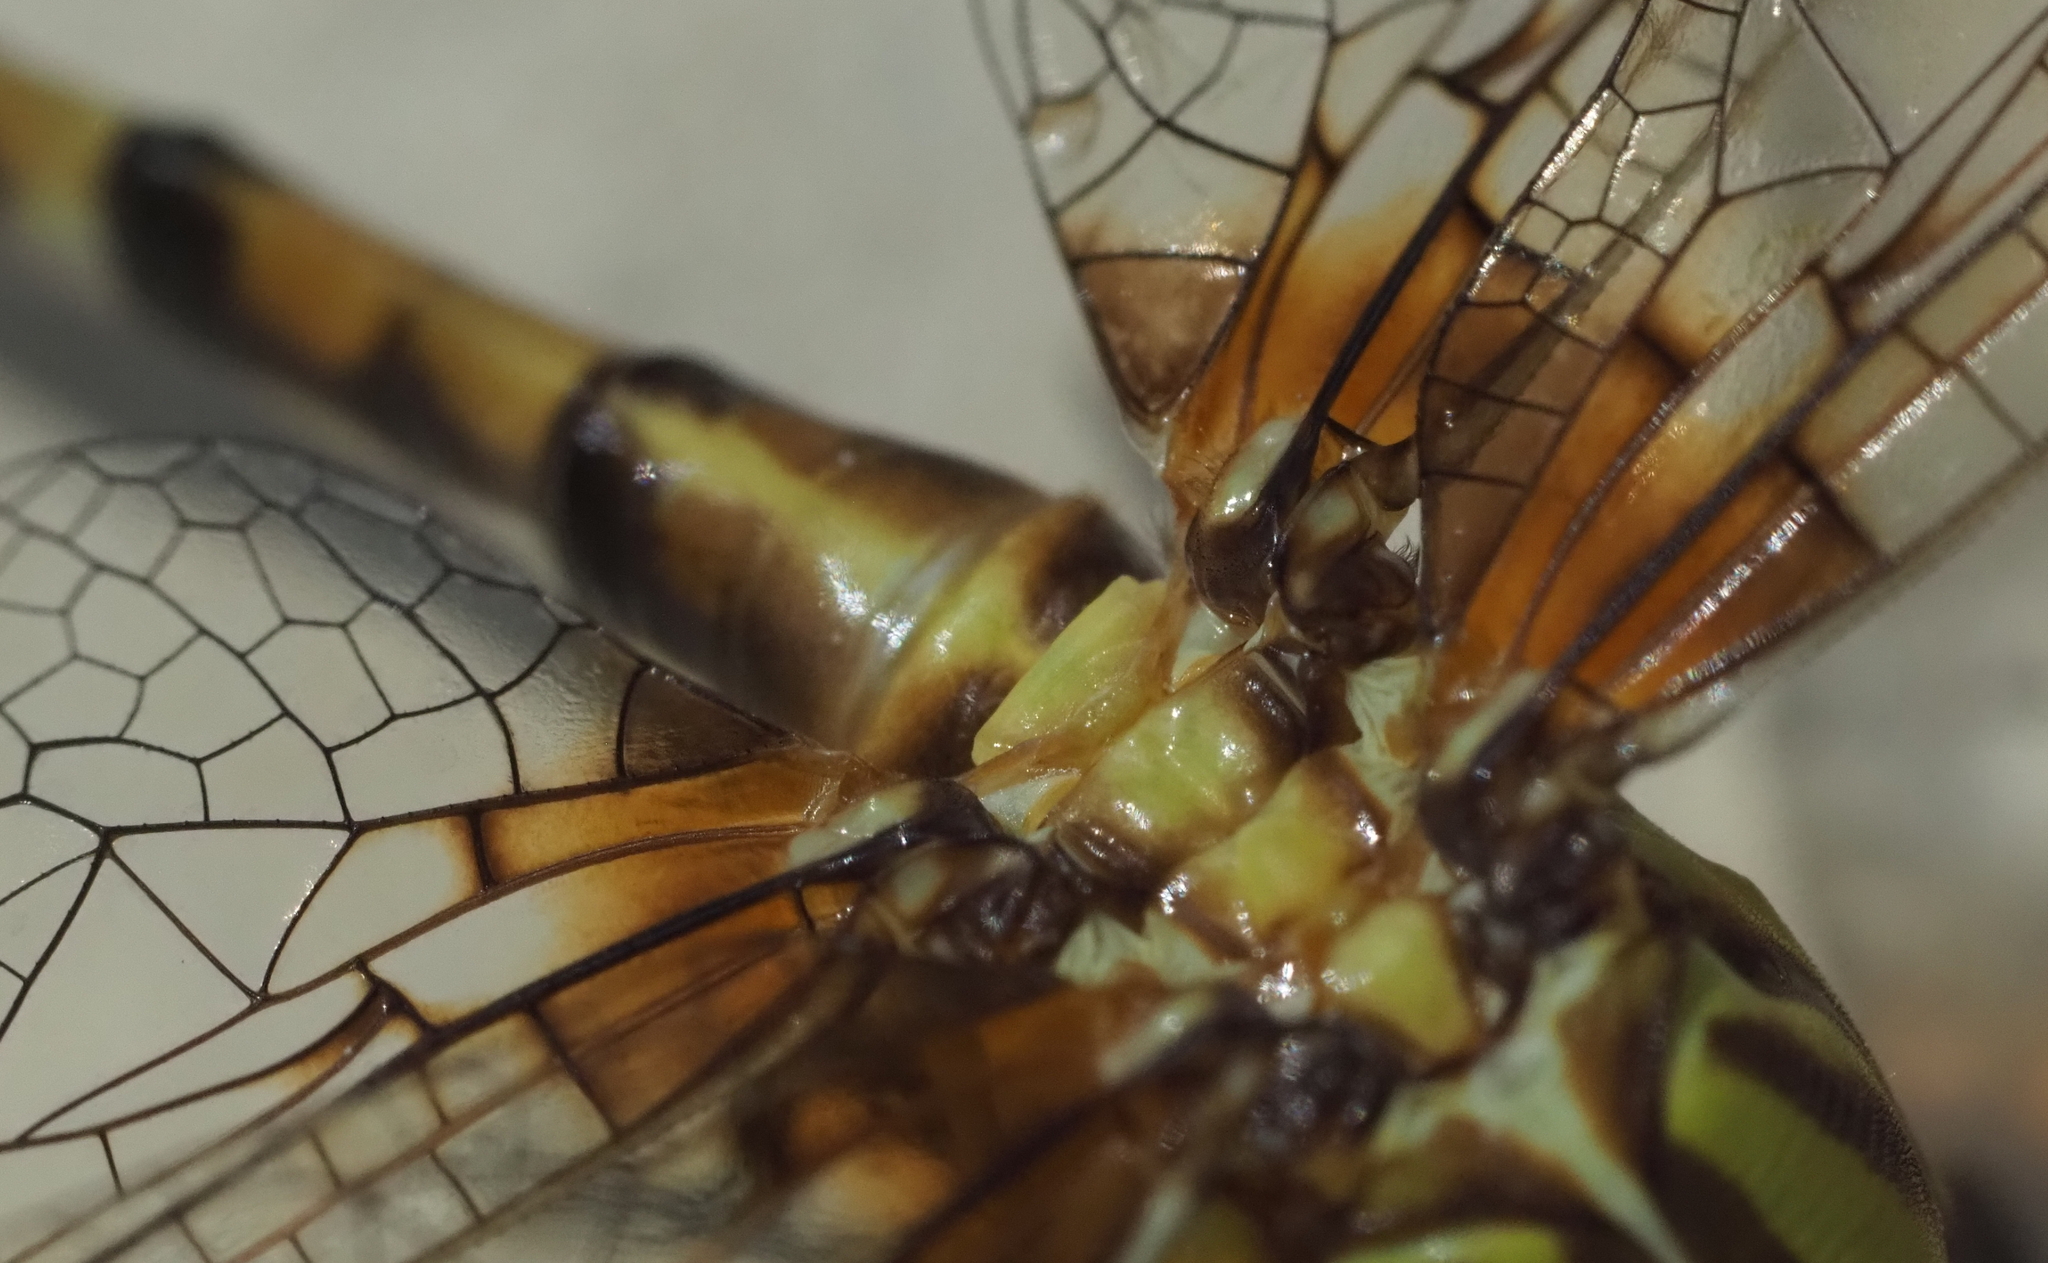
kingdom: Animalia
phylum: Arthropoda
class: Insecta
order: Odonata
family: Gomphidae
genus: Erpetogomphus
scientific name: Erpetogomphus designatus
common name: Eastern ringtail
